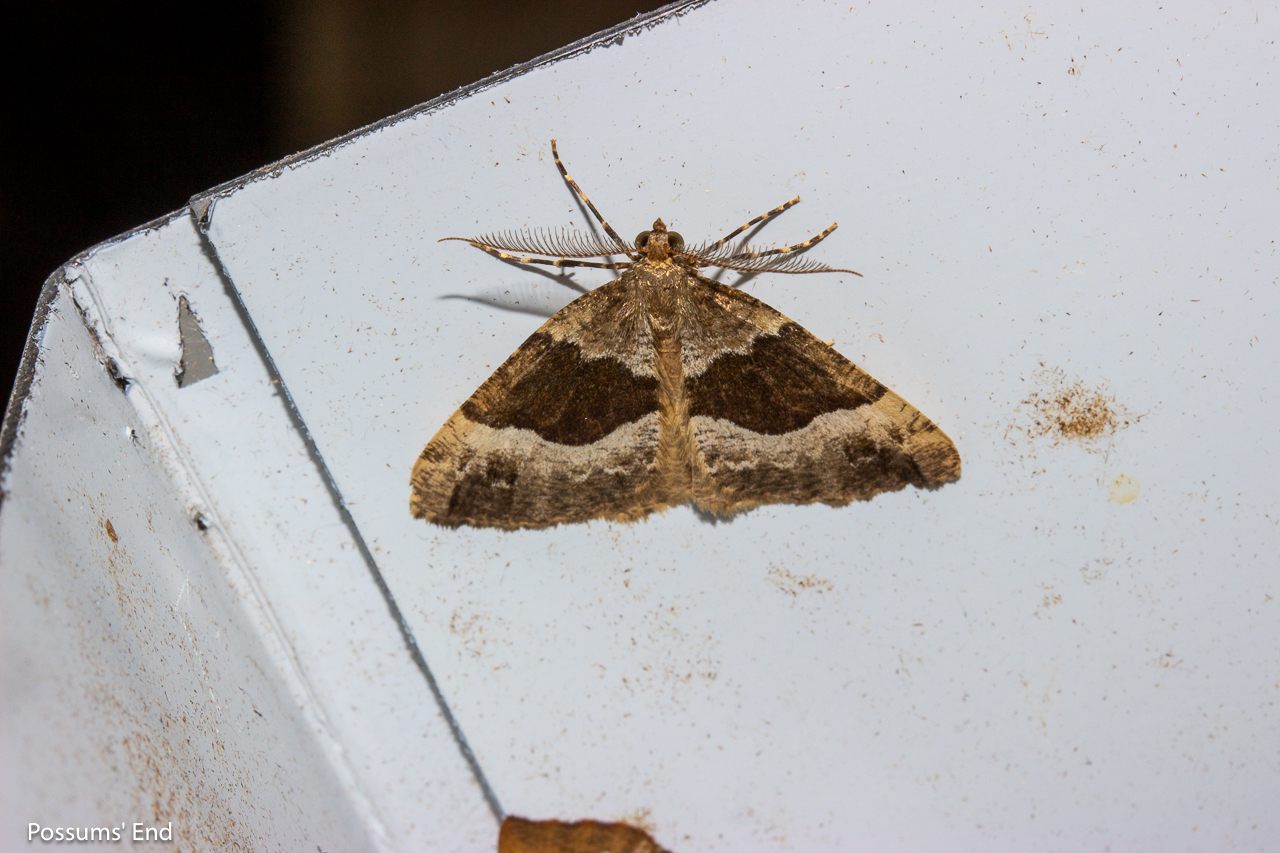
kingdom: Animalia
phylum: Arthropoda
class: Insecta
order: Lepidoptera
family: Geometridae
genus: Pseudocoremia
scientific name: Pseudocoremia
